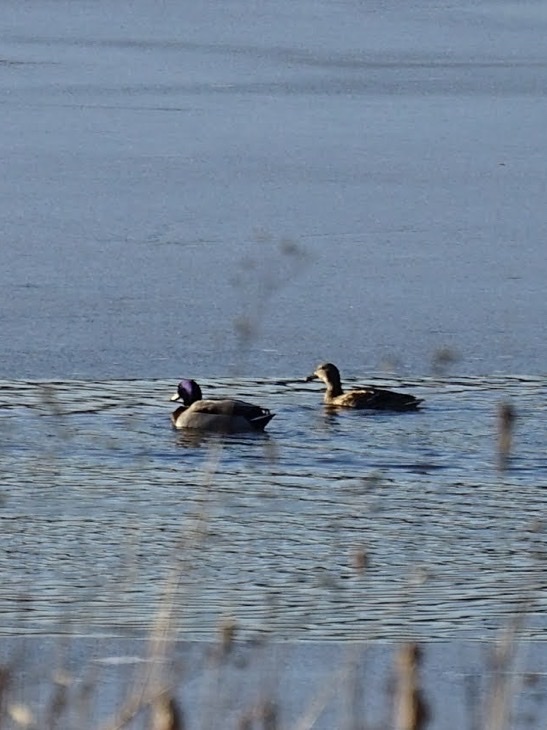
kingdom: Animalia
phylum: Chordata
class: Aves
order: Anseriformes
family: Anatidae
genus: Anas
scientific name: Anas platyrhynchos
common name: Mallard
